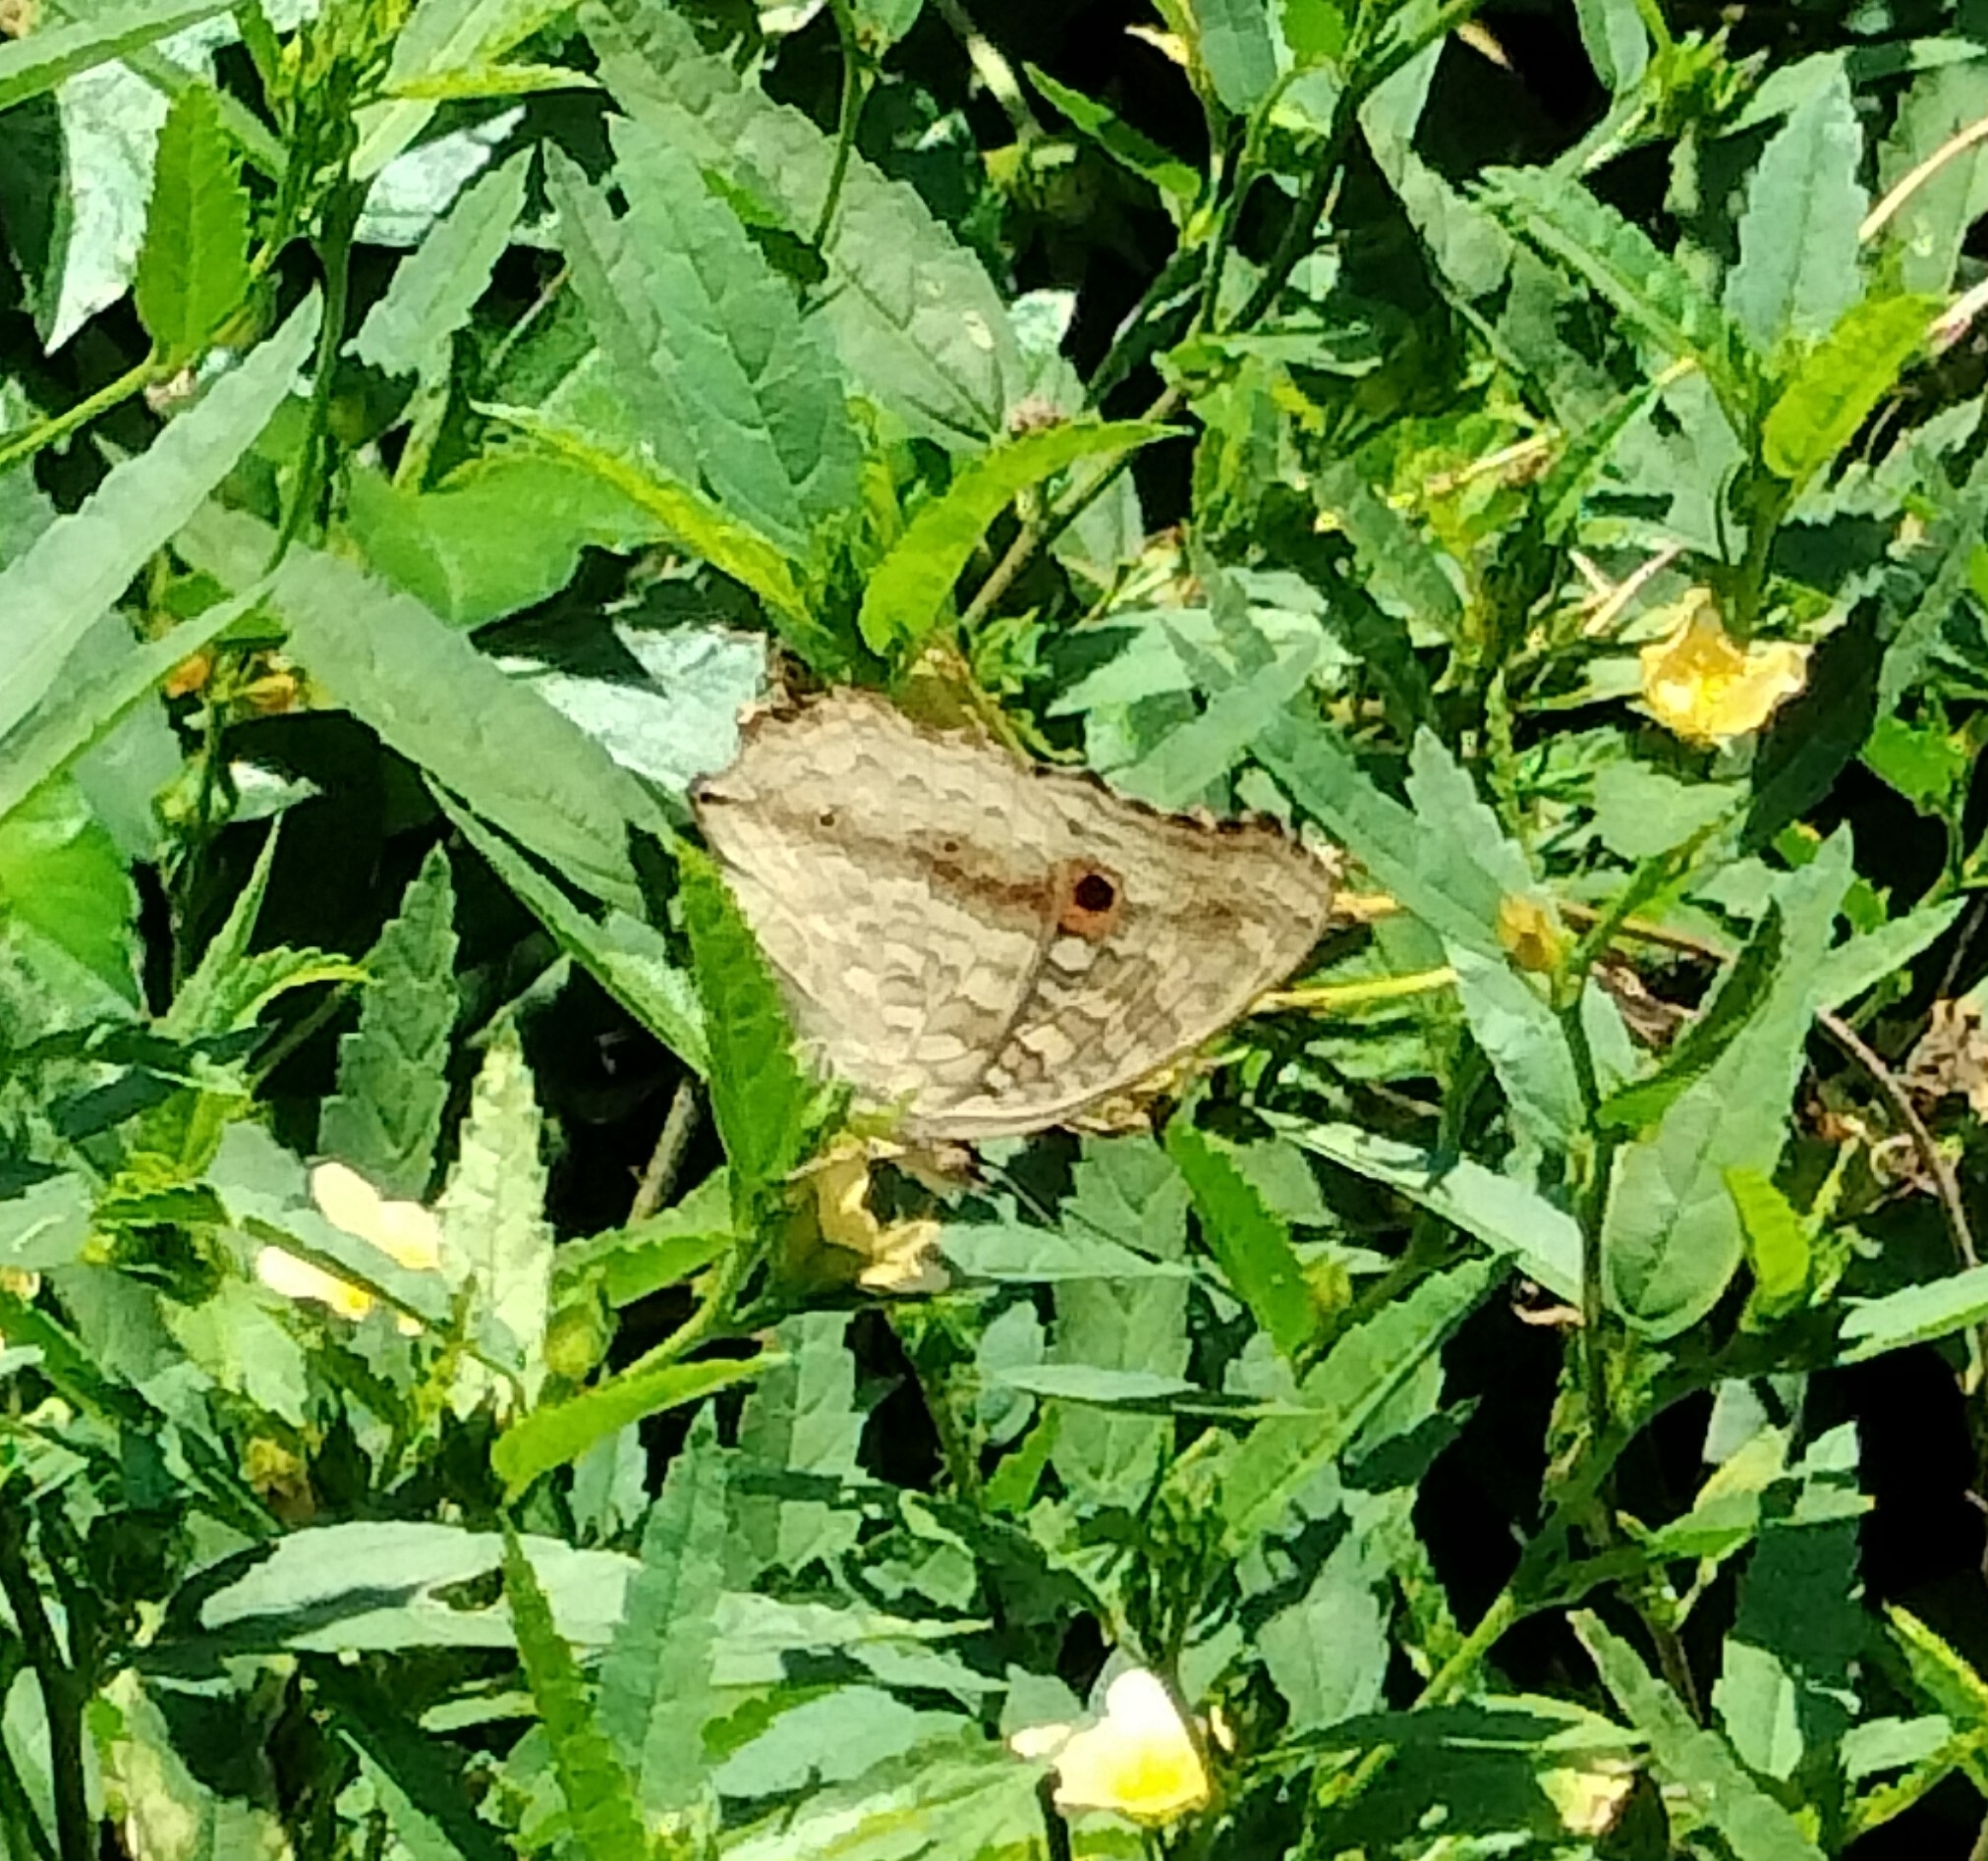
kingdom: Animalia
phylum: Arthropoda
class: Insecta
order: Lepidoptera
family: Nymphalidae
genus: Junonia
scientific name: Junonia lemonias
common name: Lemon pansy
